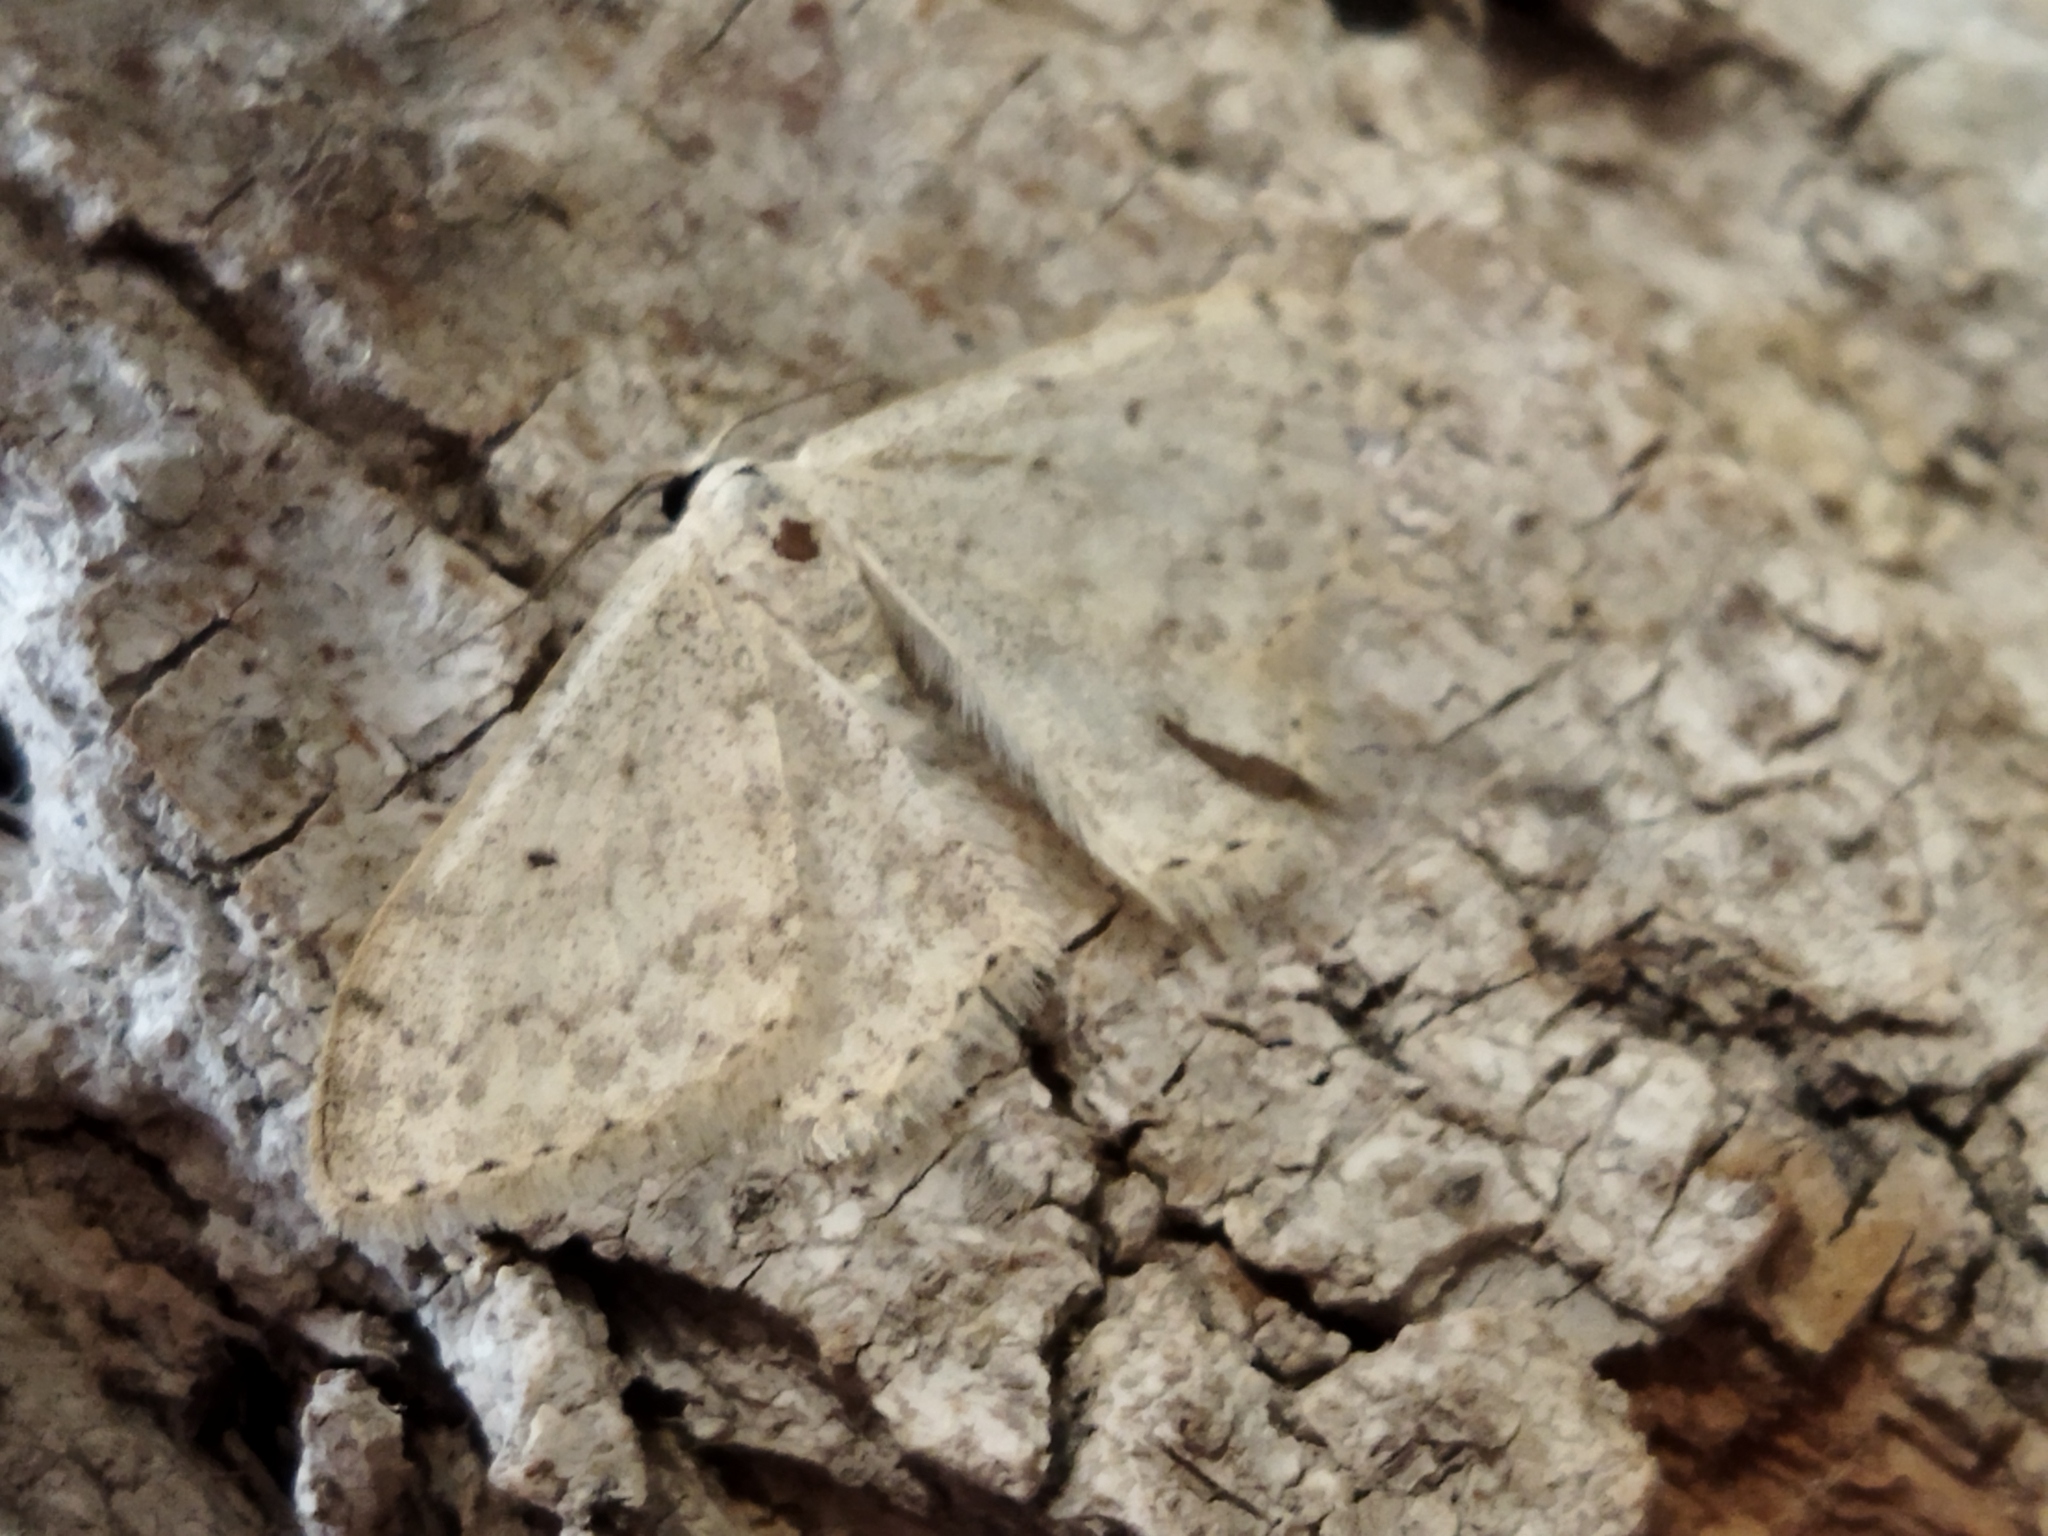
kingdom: Animalia
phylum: Arthropoda
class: Insecta
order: Lepidoptera
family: Geometridae
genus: Scopula
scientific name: Scopula marginepunctata
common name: Mullein wave
